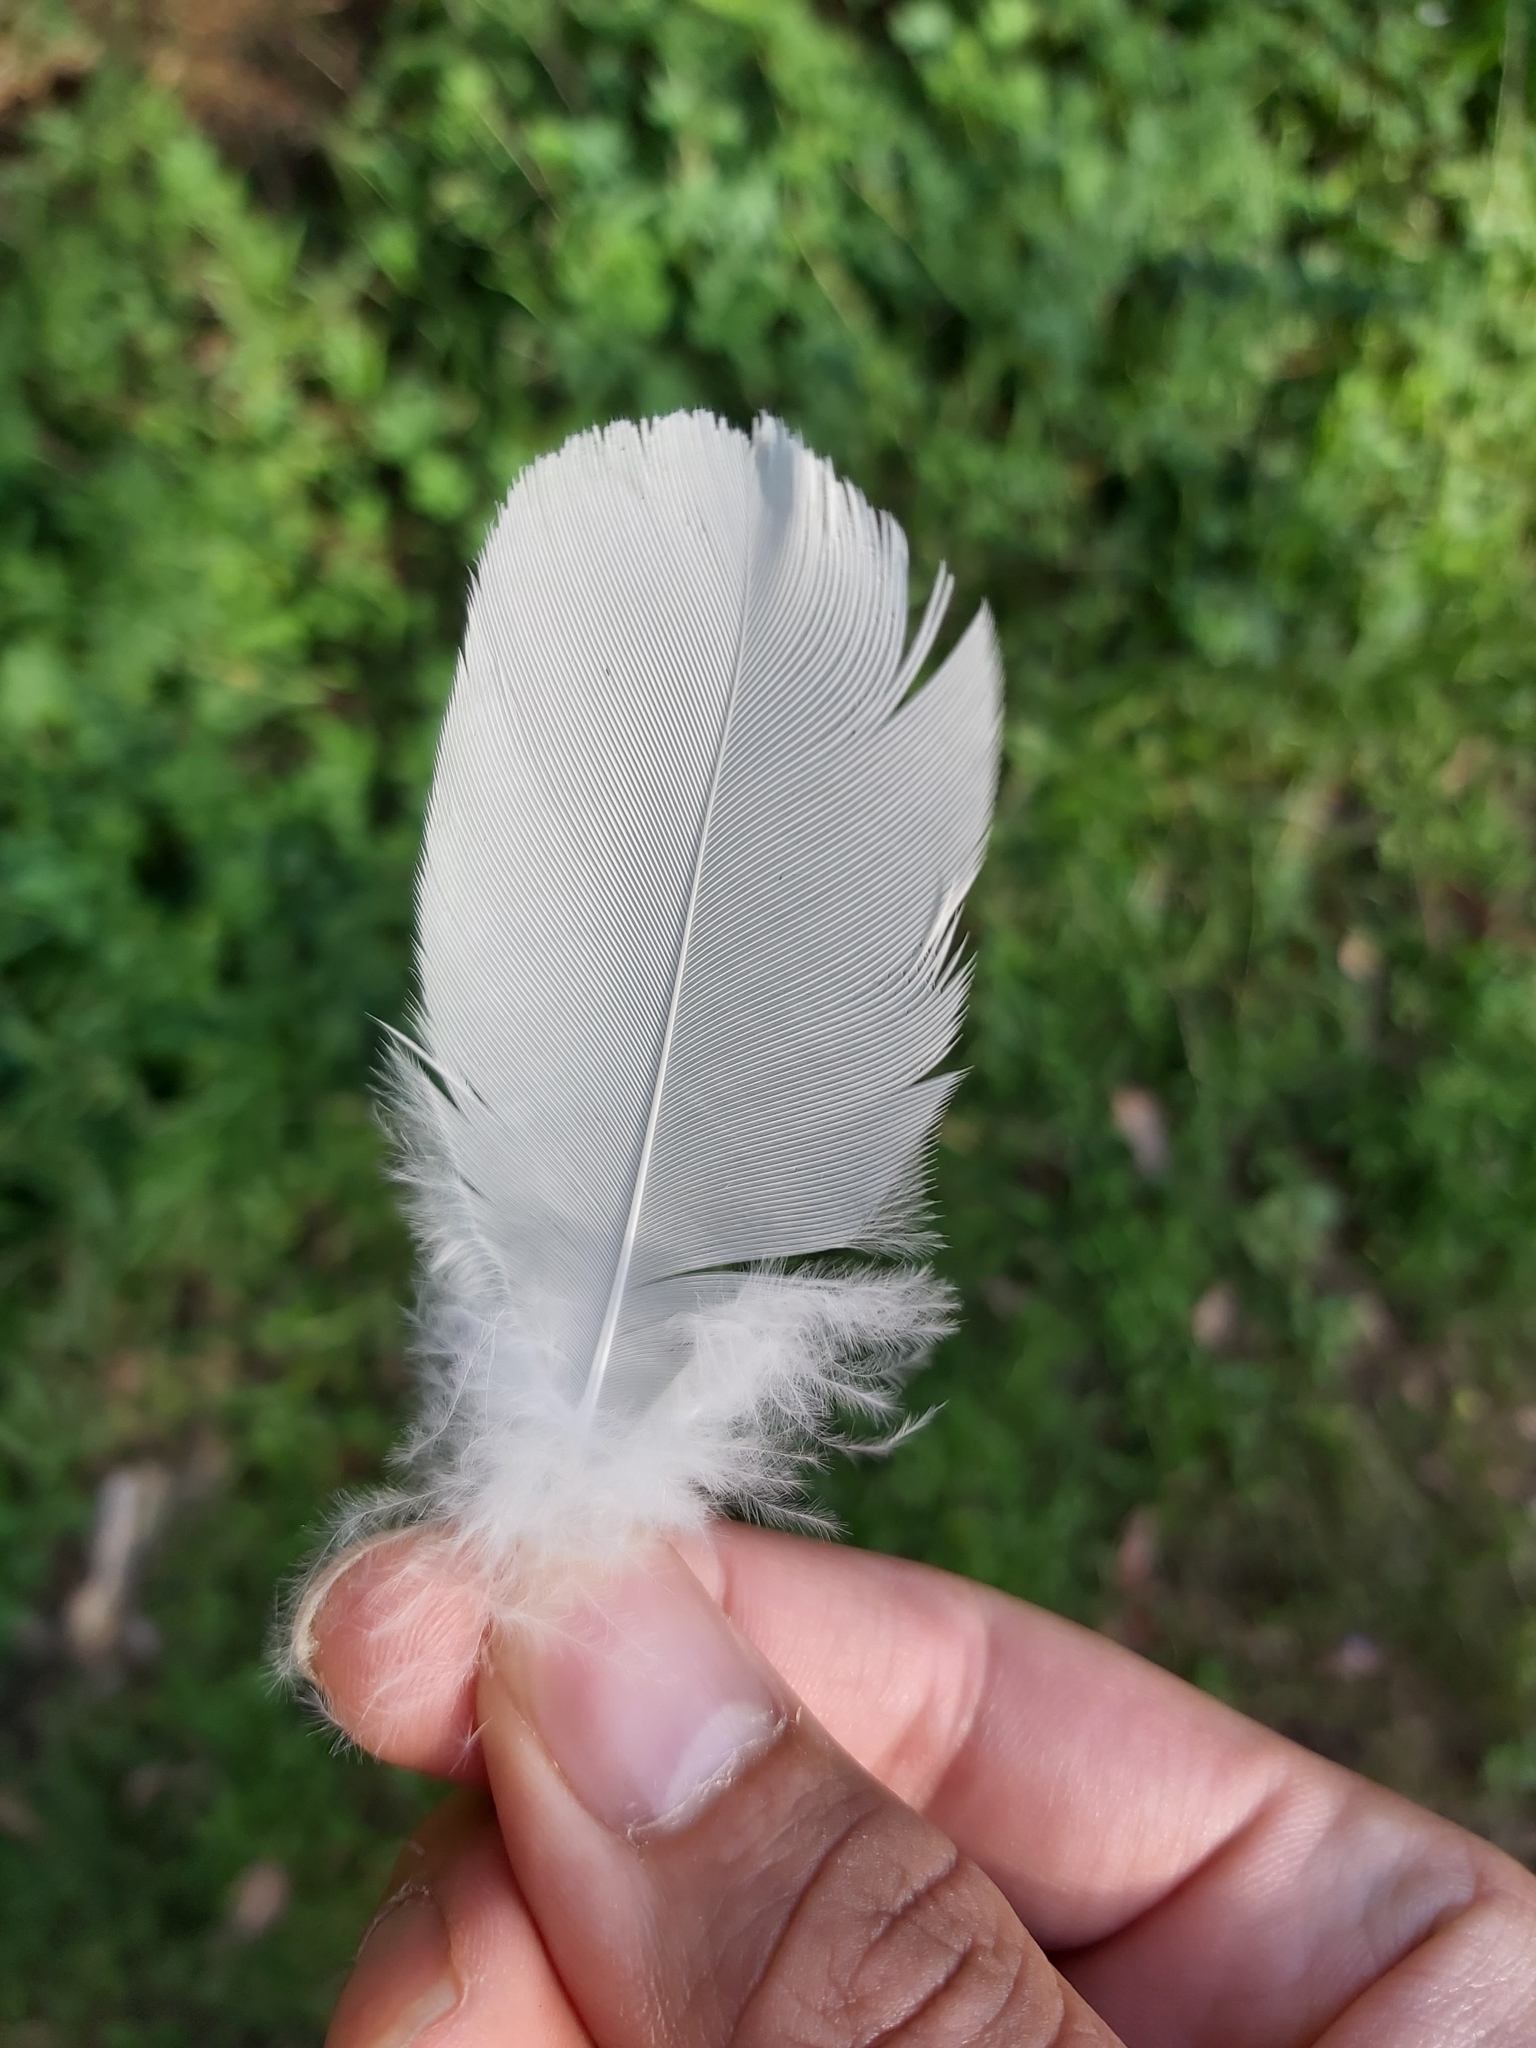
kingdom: Animalia
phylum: Chordata
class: Aves
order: Psittaciformes
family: Psittacidae
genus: Cacatua
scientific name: Cacatua galerita
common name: Sulphur-crested cockatoo
